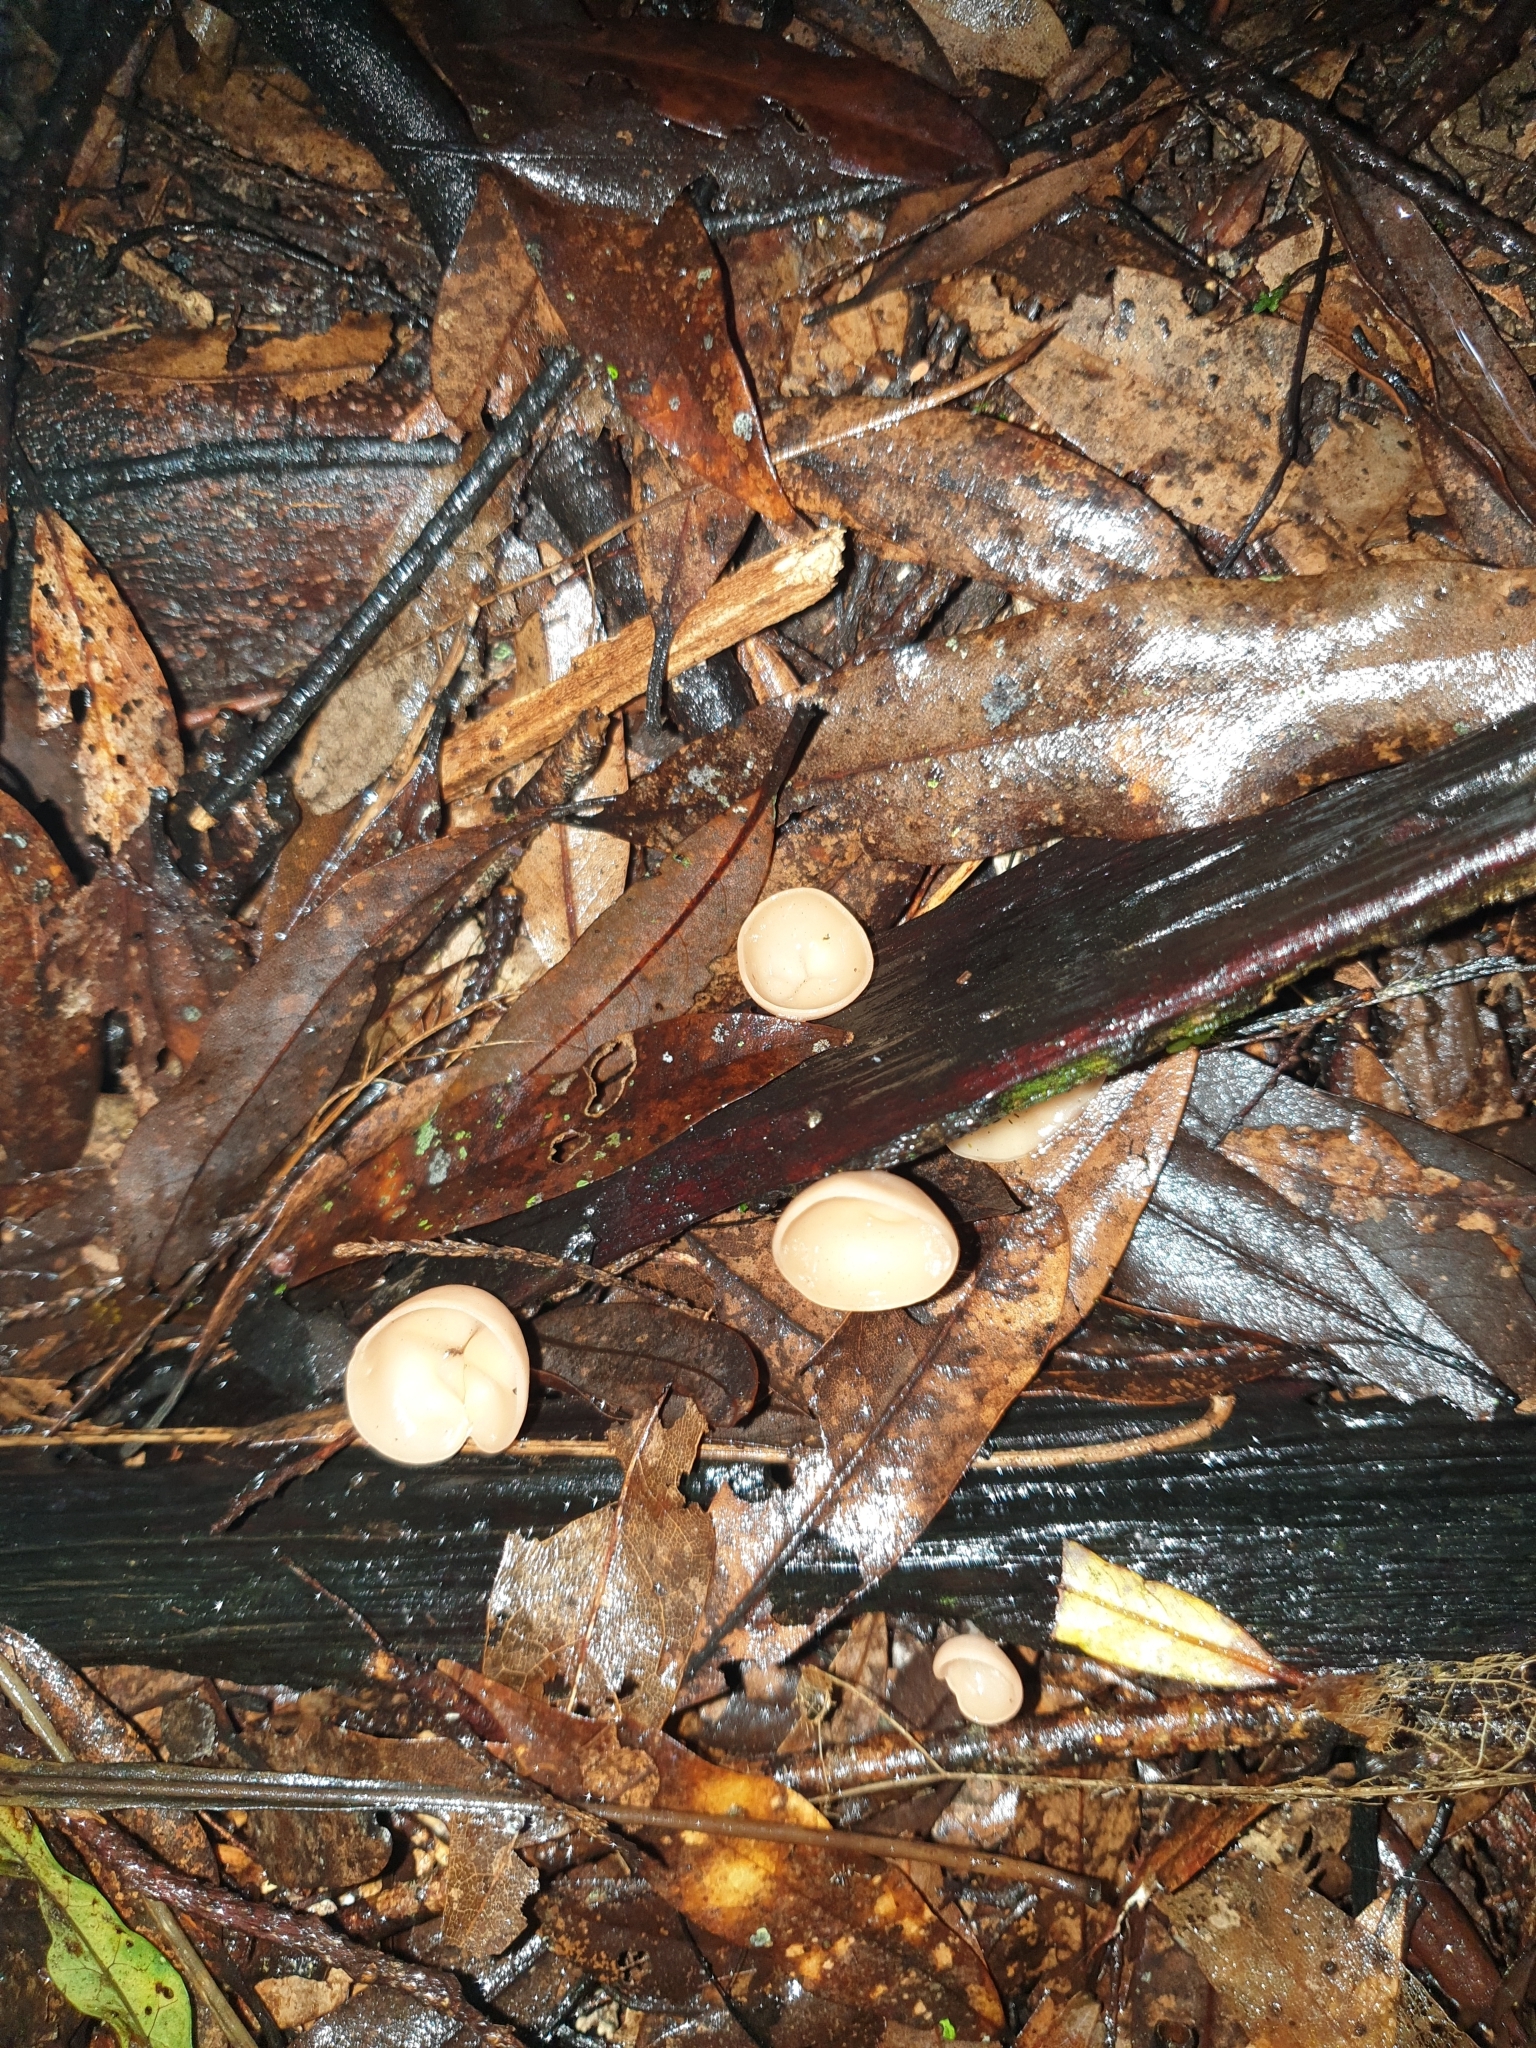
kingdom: Fungi
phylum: Ascomycota
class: Pezizomycetes
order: Pezizales
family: Sarcoscyphaceae
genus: Cookeina
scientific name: Cookeina colensoi
